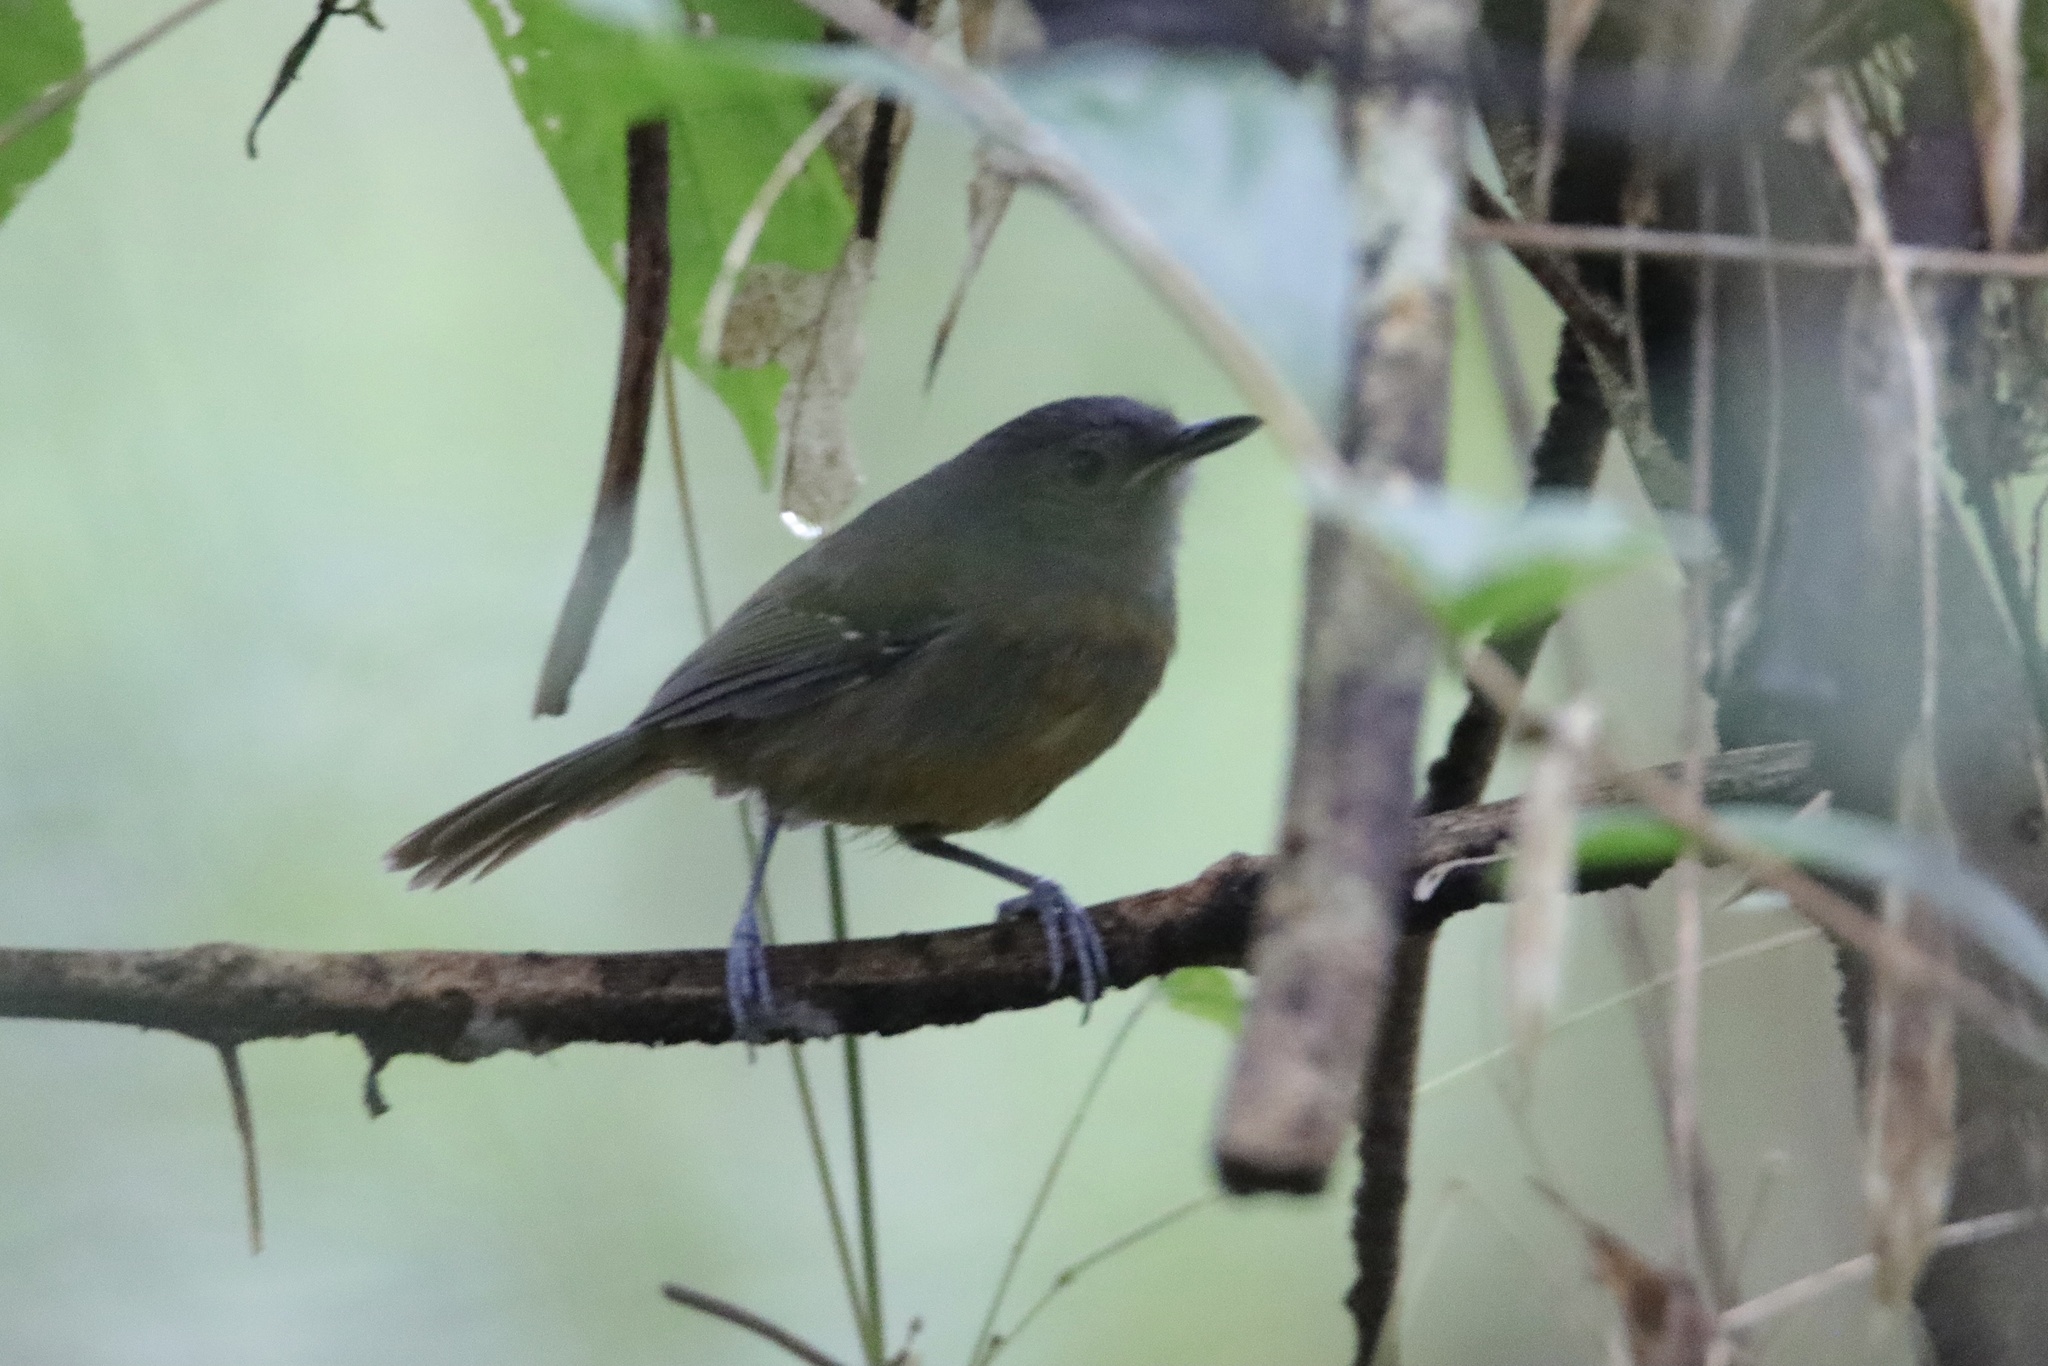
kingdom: Animalia
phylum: Chordata
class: Aves
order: Passeriformes
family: Thamnophilidae
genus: Cercomacra
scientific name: Cercomacra tyrannina
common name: Dusky antbird
